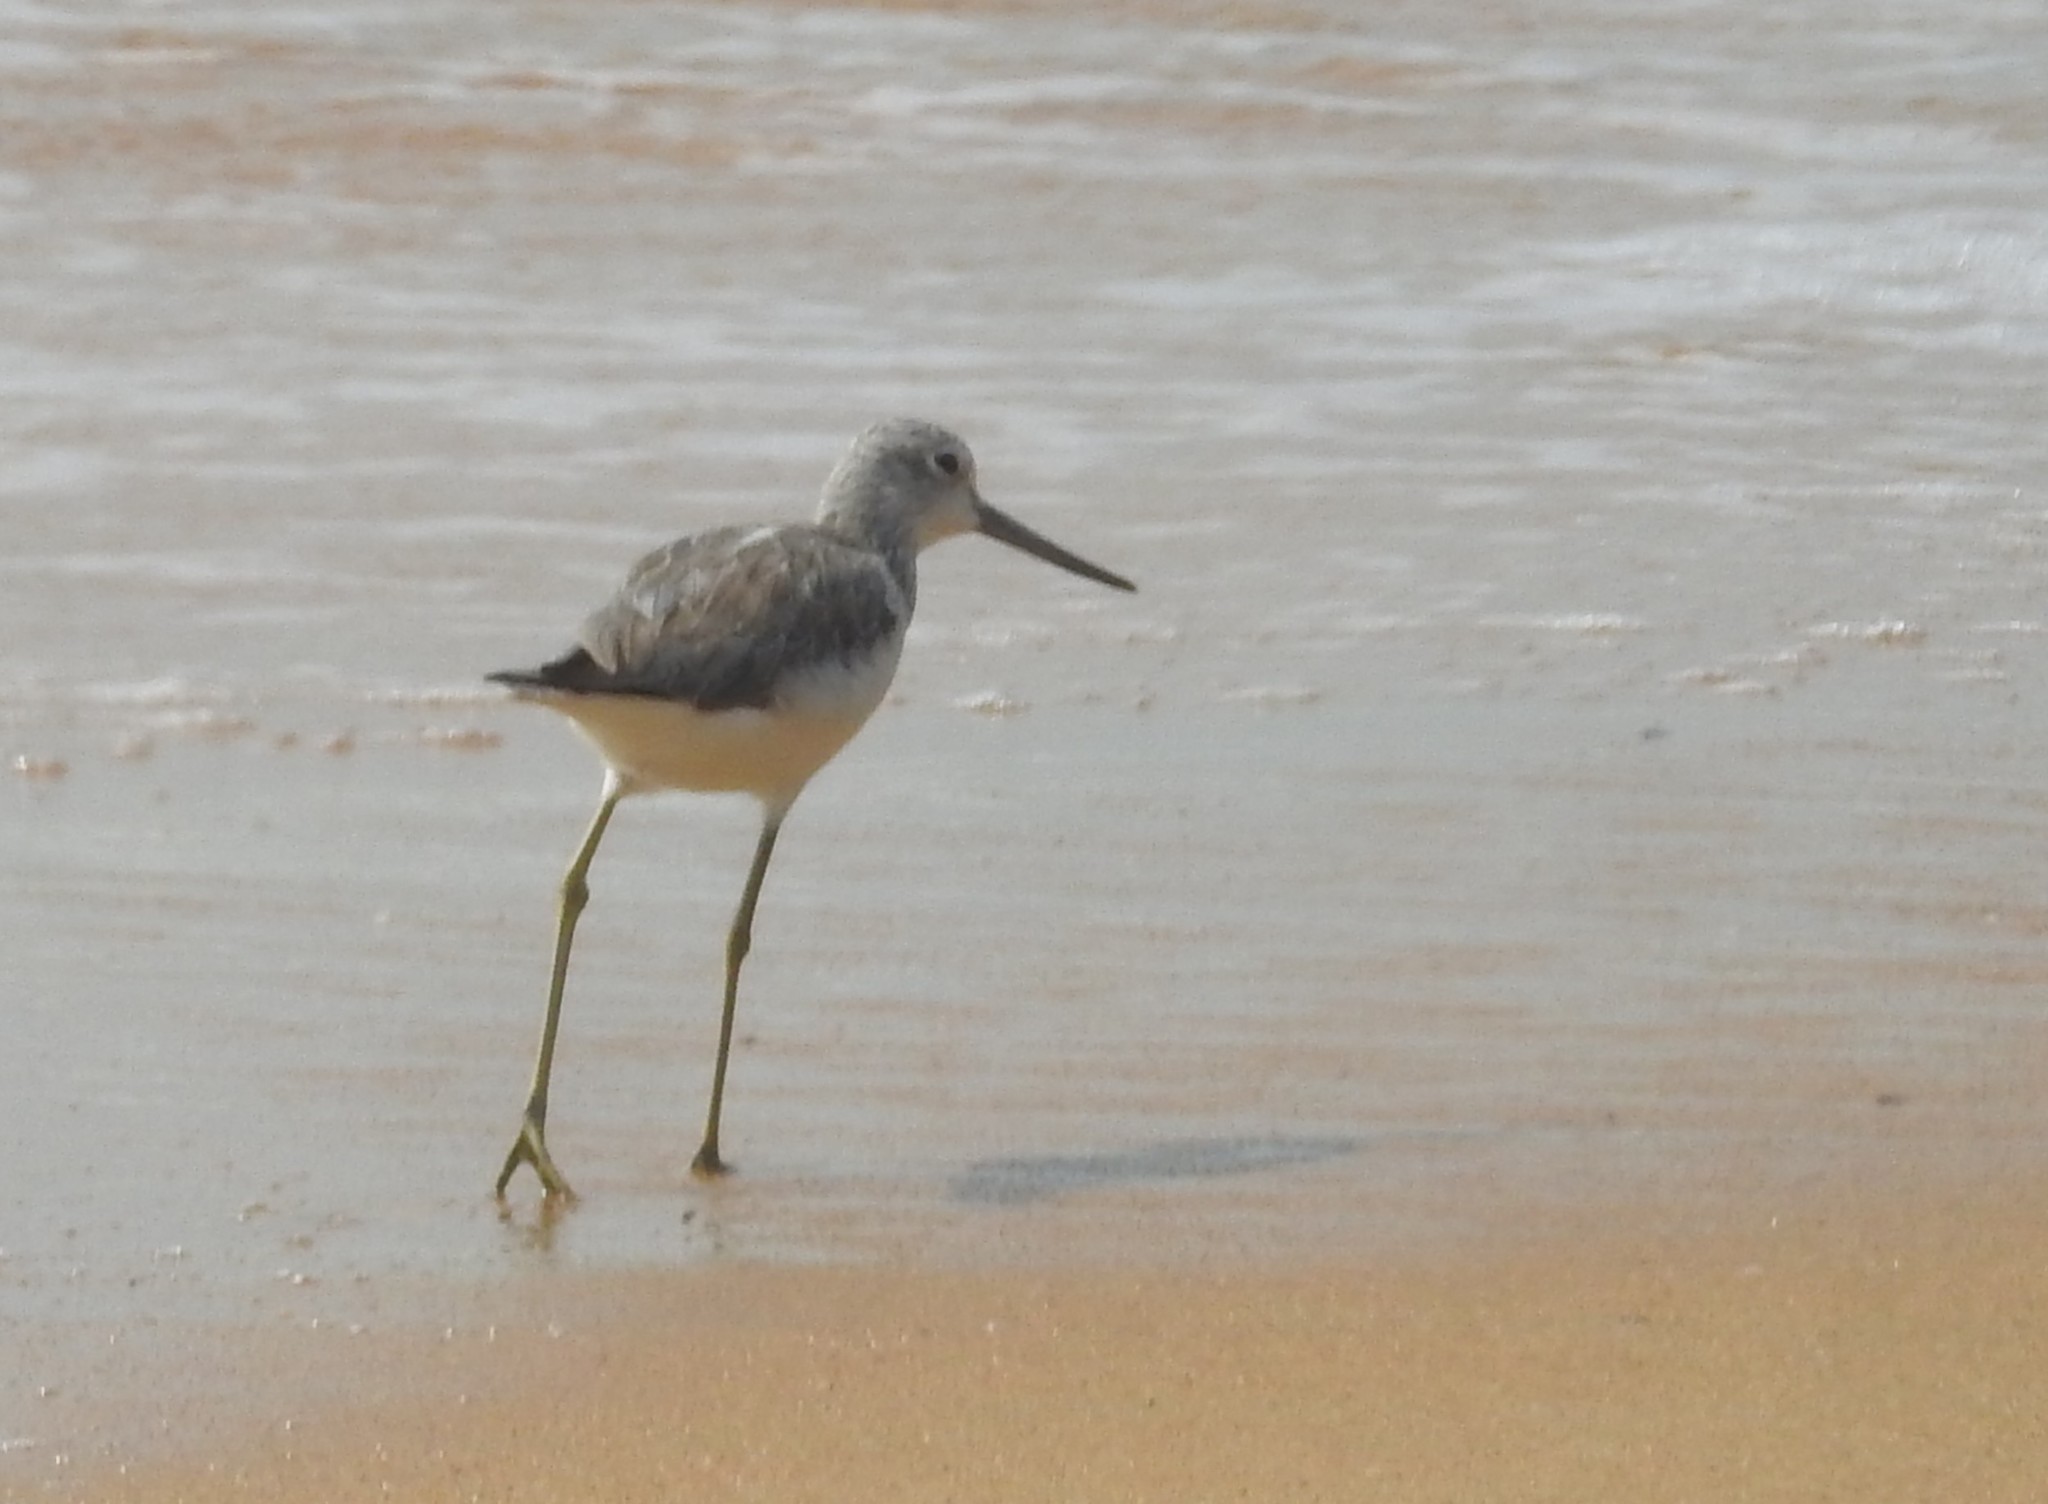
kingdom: Animalia
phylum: Chordata
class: Aves
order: Charadriiformes
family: Scolopacidae
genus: Tringa
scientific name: Tringa nebularia
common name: Common greenshank
